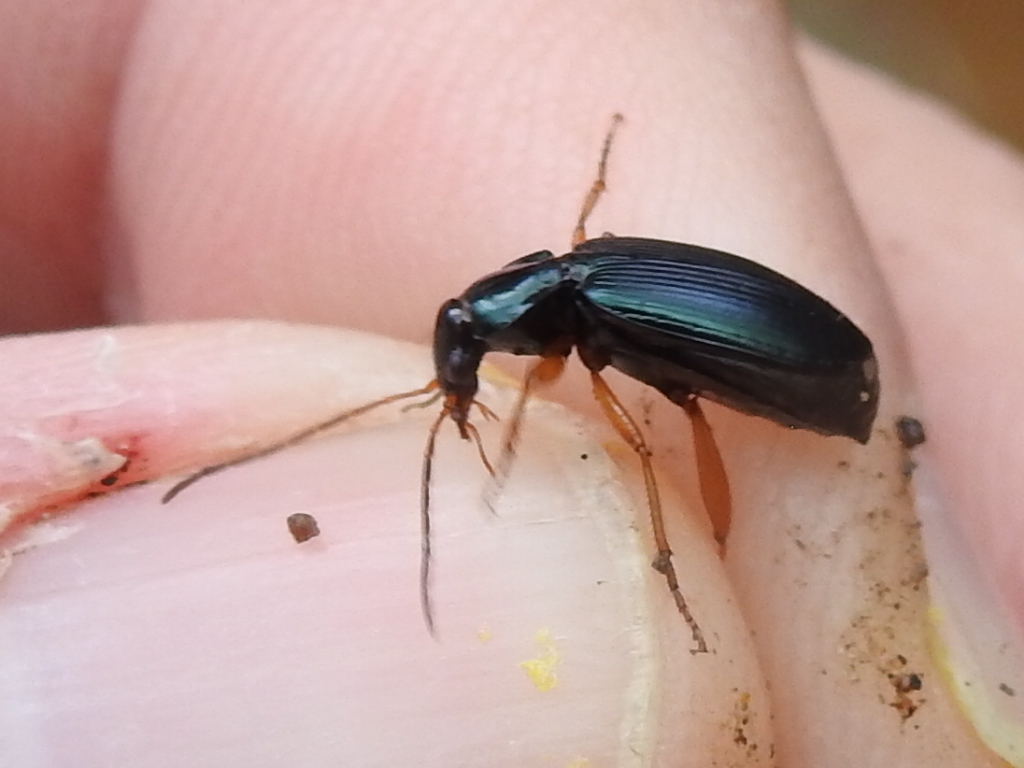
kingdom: Animalia
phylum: Arthropoda
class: Insecta
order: Coleoptera
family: Carabidae
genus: Agonum
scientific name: Agonum extensicolle
